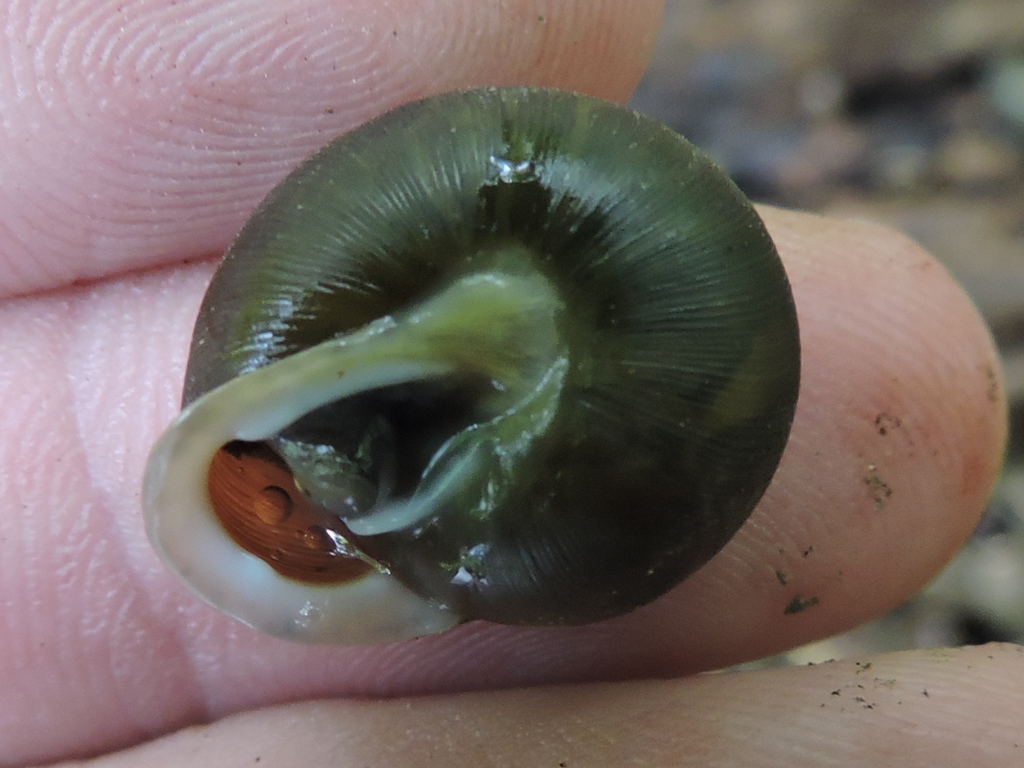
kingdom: Animalia
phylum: Mollusca
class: Gastropoda
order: Stylommatophora
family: Polygyridae
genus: Xolotrema
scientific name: Xolotrema fosteri
